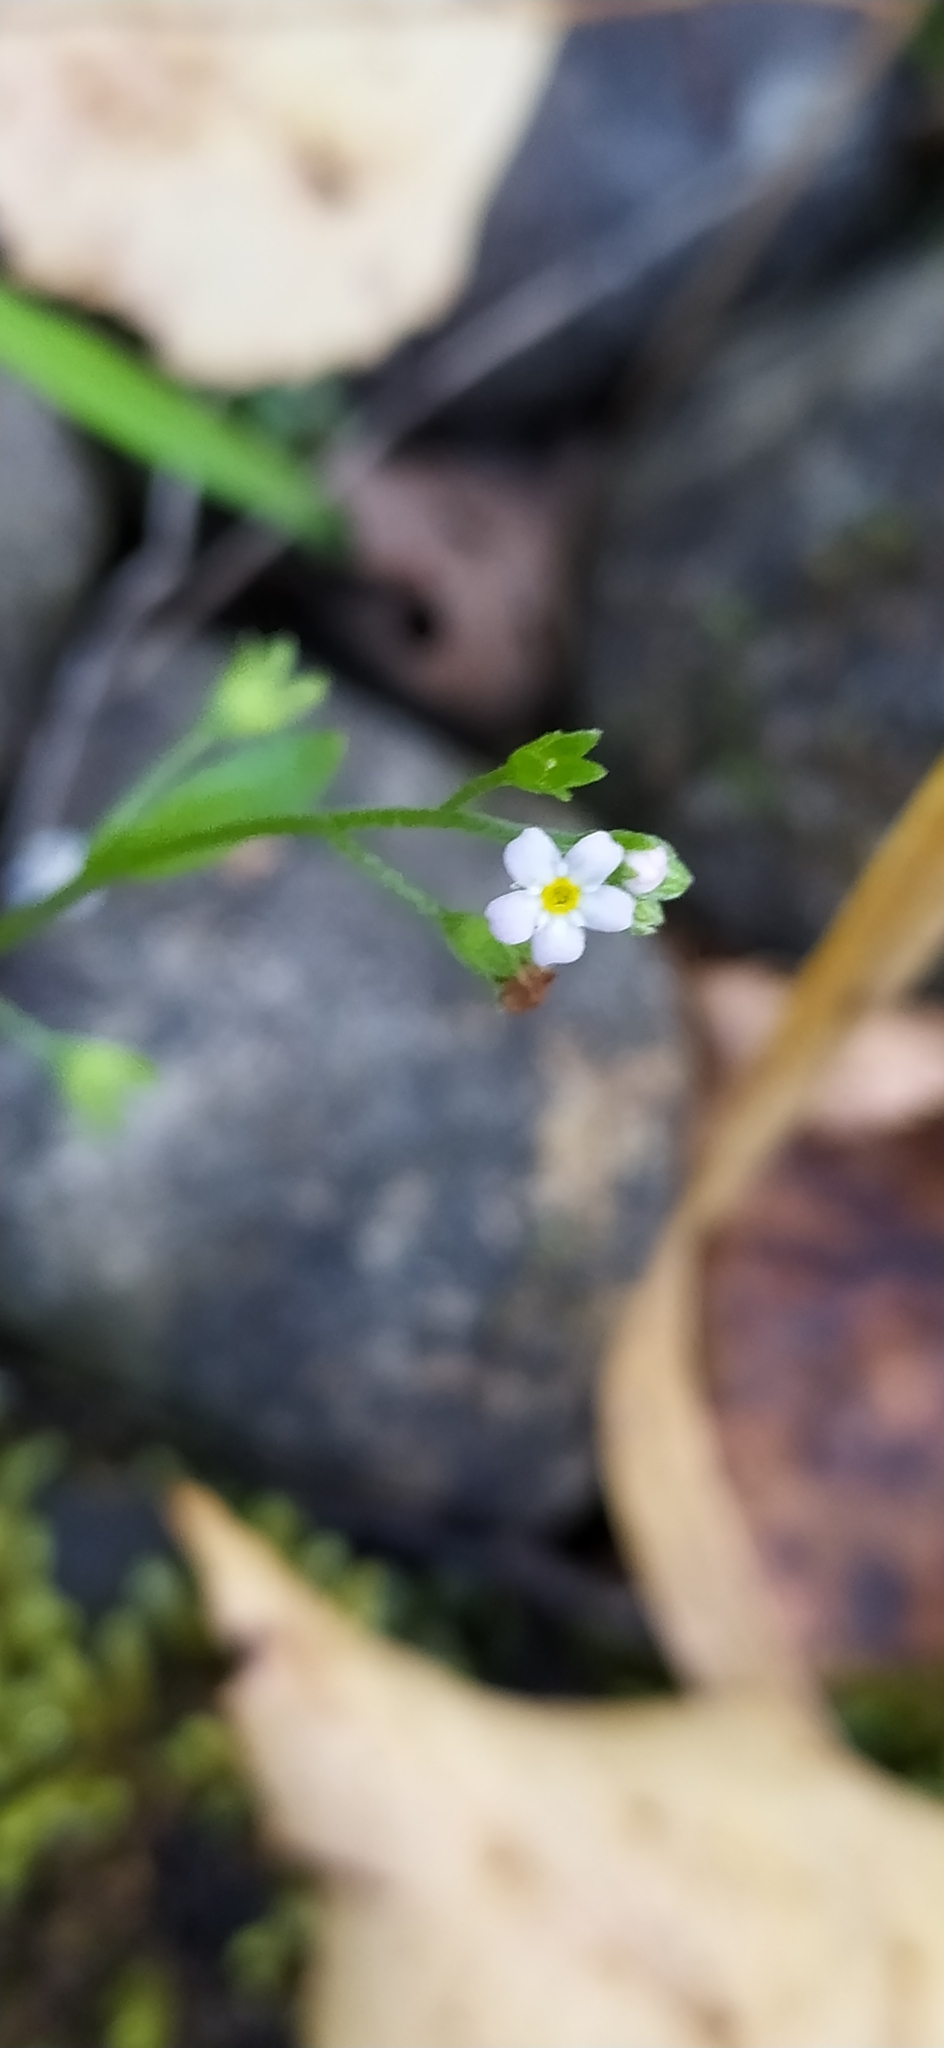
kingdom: Plantae
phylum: Tracheophyta
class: Magnoliopsida
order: Boraginales
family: Boraginaceae
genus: Myosotis
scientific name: Myosotis scorpioides
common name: Water forget-me-not
